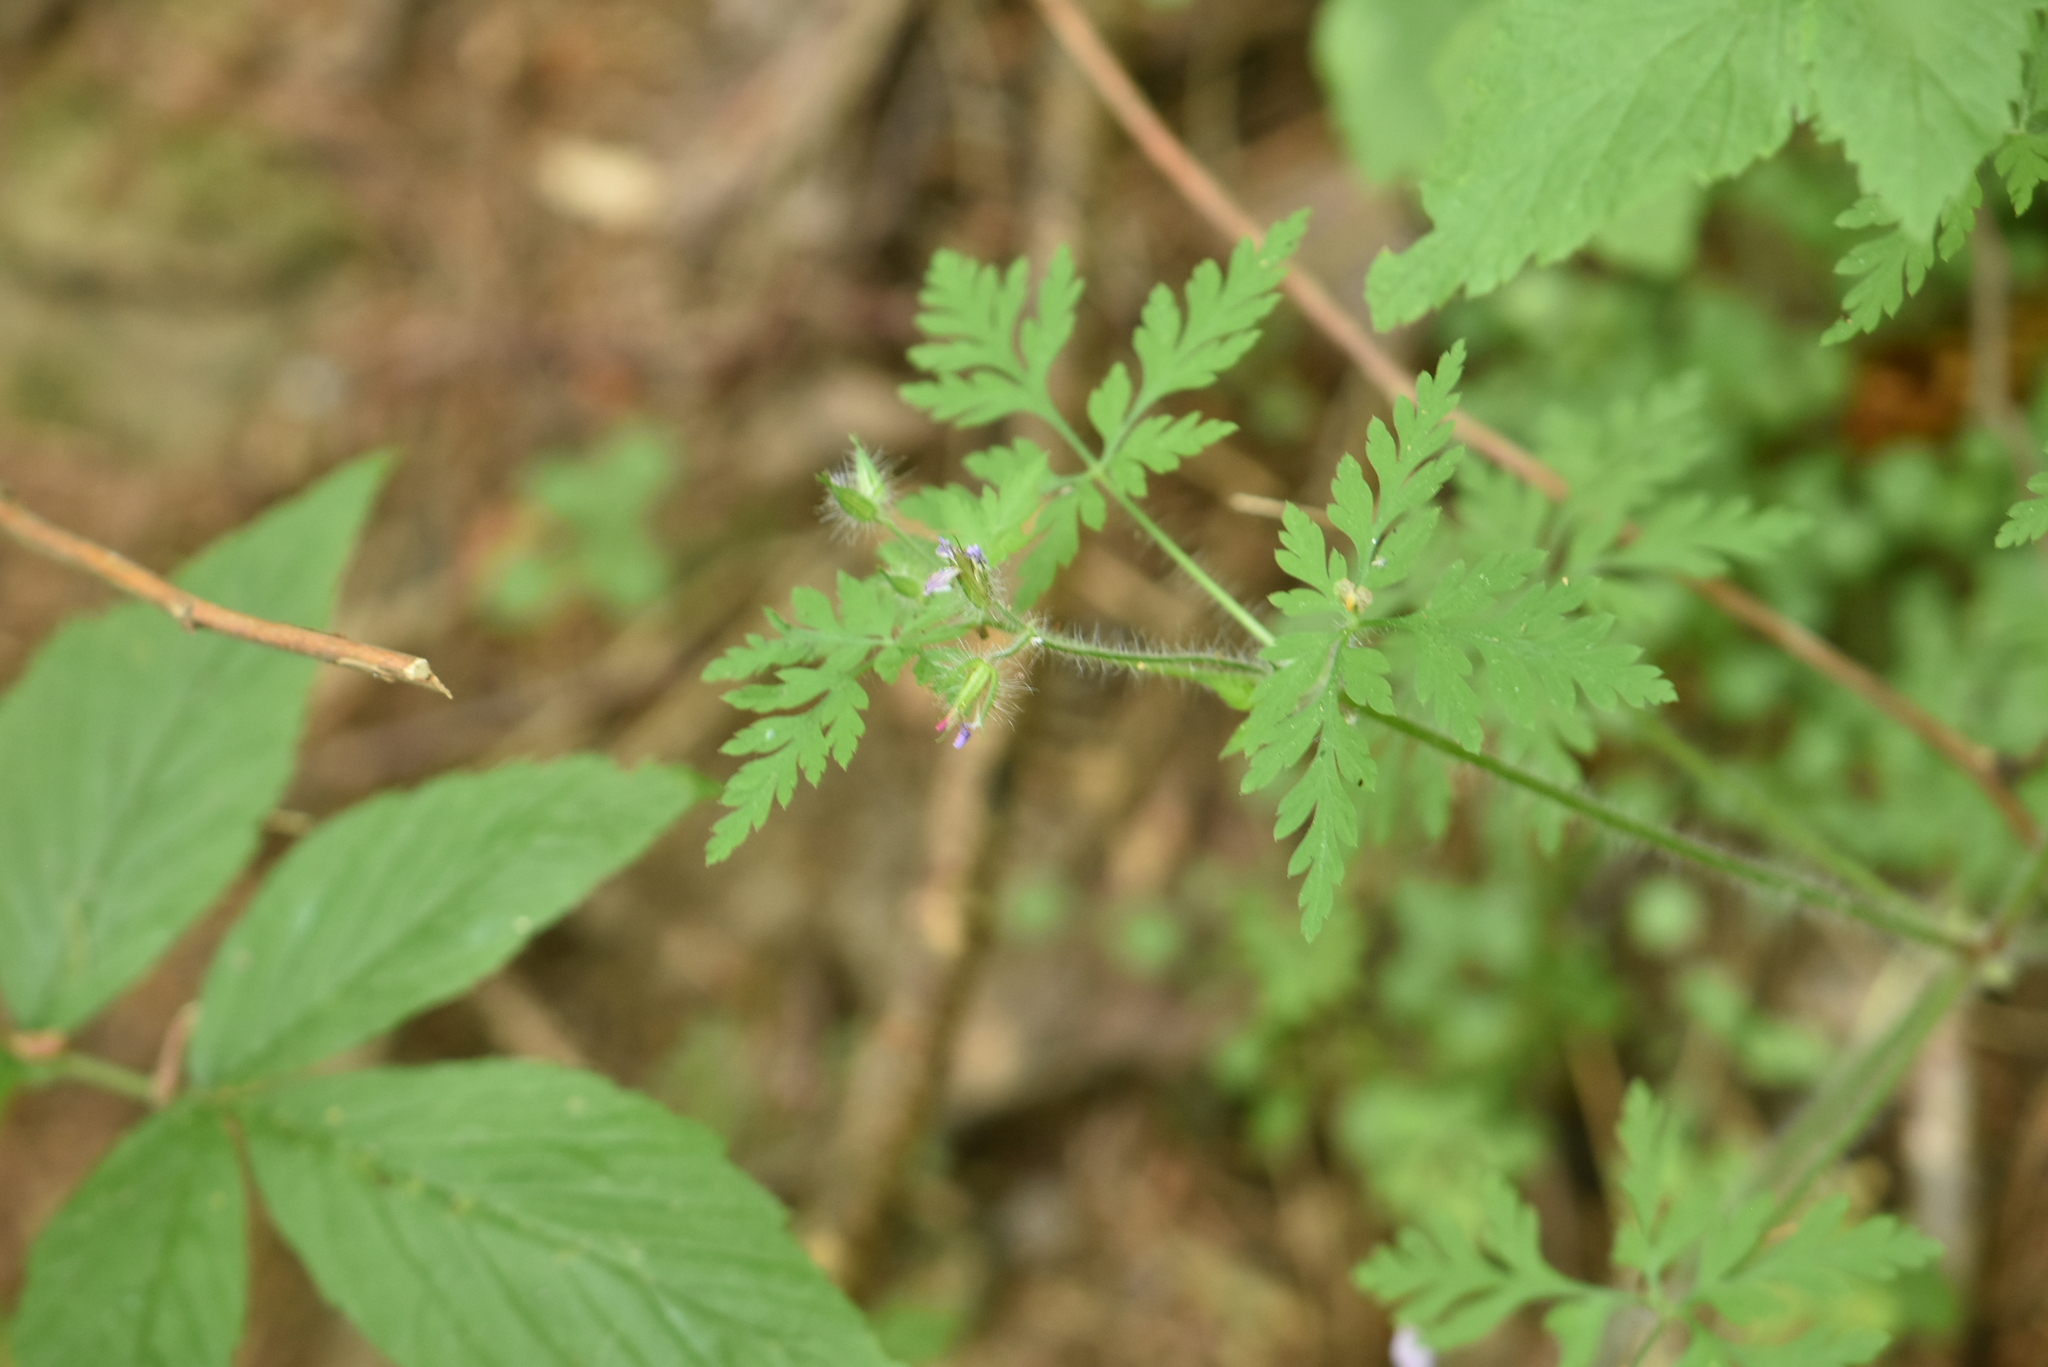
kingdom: Plantae
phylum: Tracheophyta
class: Magnoliopsida
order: Geraniales
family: Geraniaceae
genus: Geranium
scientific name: Geranium robertianum
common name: Herb-robert
